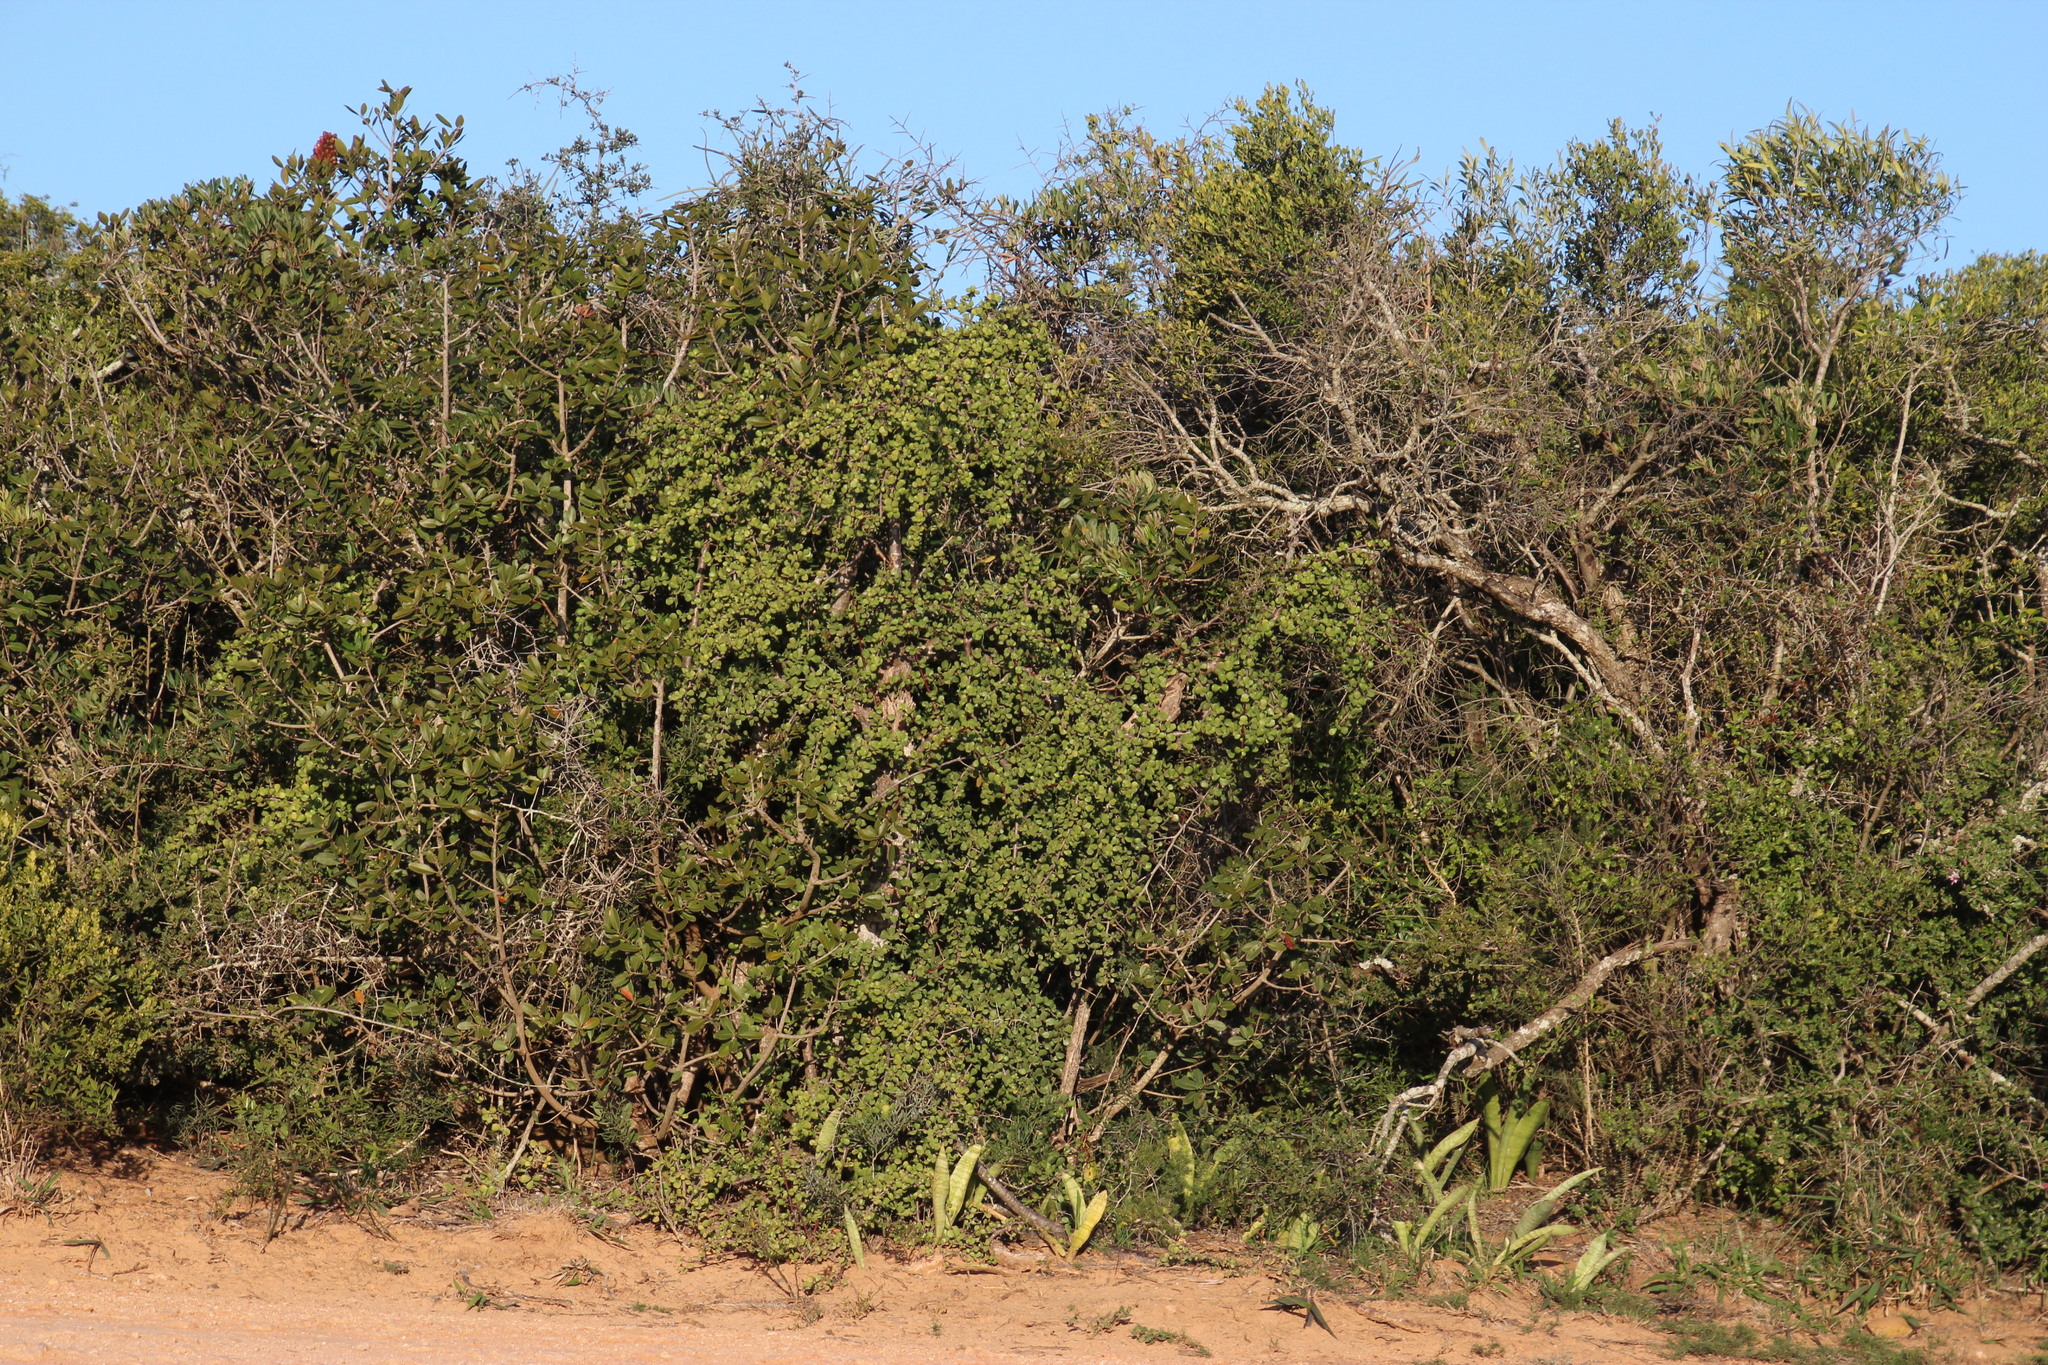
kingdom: Plantae
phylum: Tracheophyta
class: Magnoliopsida
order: Caryophyllales
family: Didiereaceae
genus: Portulacaria
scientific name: Portulacaria afra
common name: Elephant-bush
